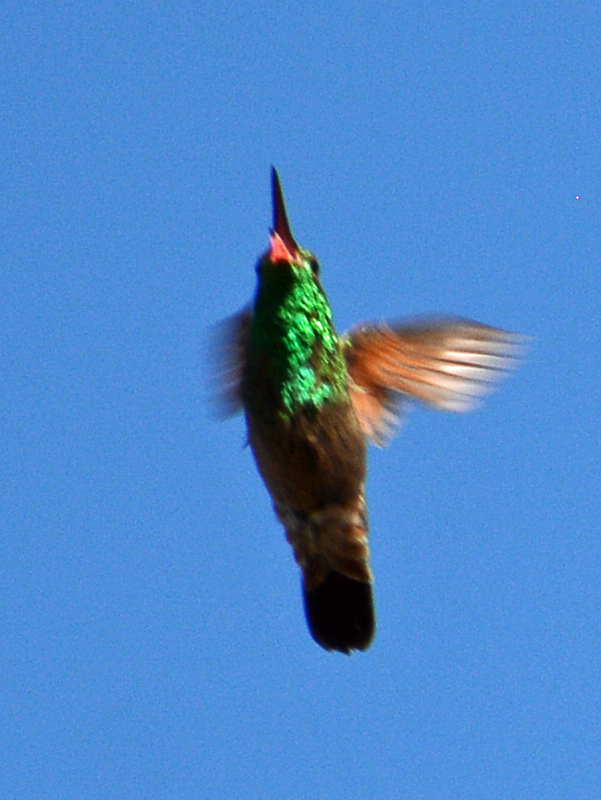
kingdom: Animalia
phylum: Chordata
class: Aves
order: Apodiformes
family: Trochilidae
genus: Saucerottia
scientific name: Saucerottia beryllina
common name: Berylline hummingbird
